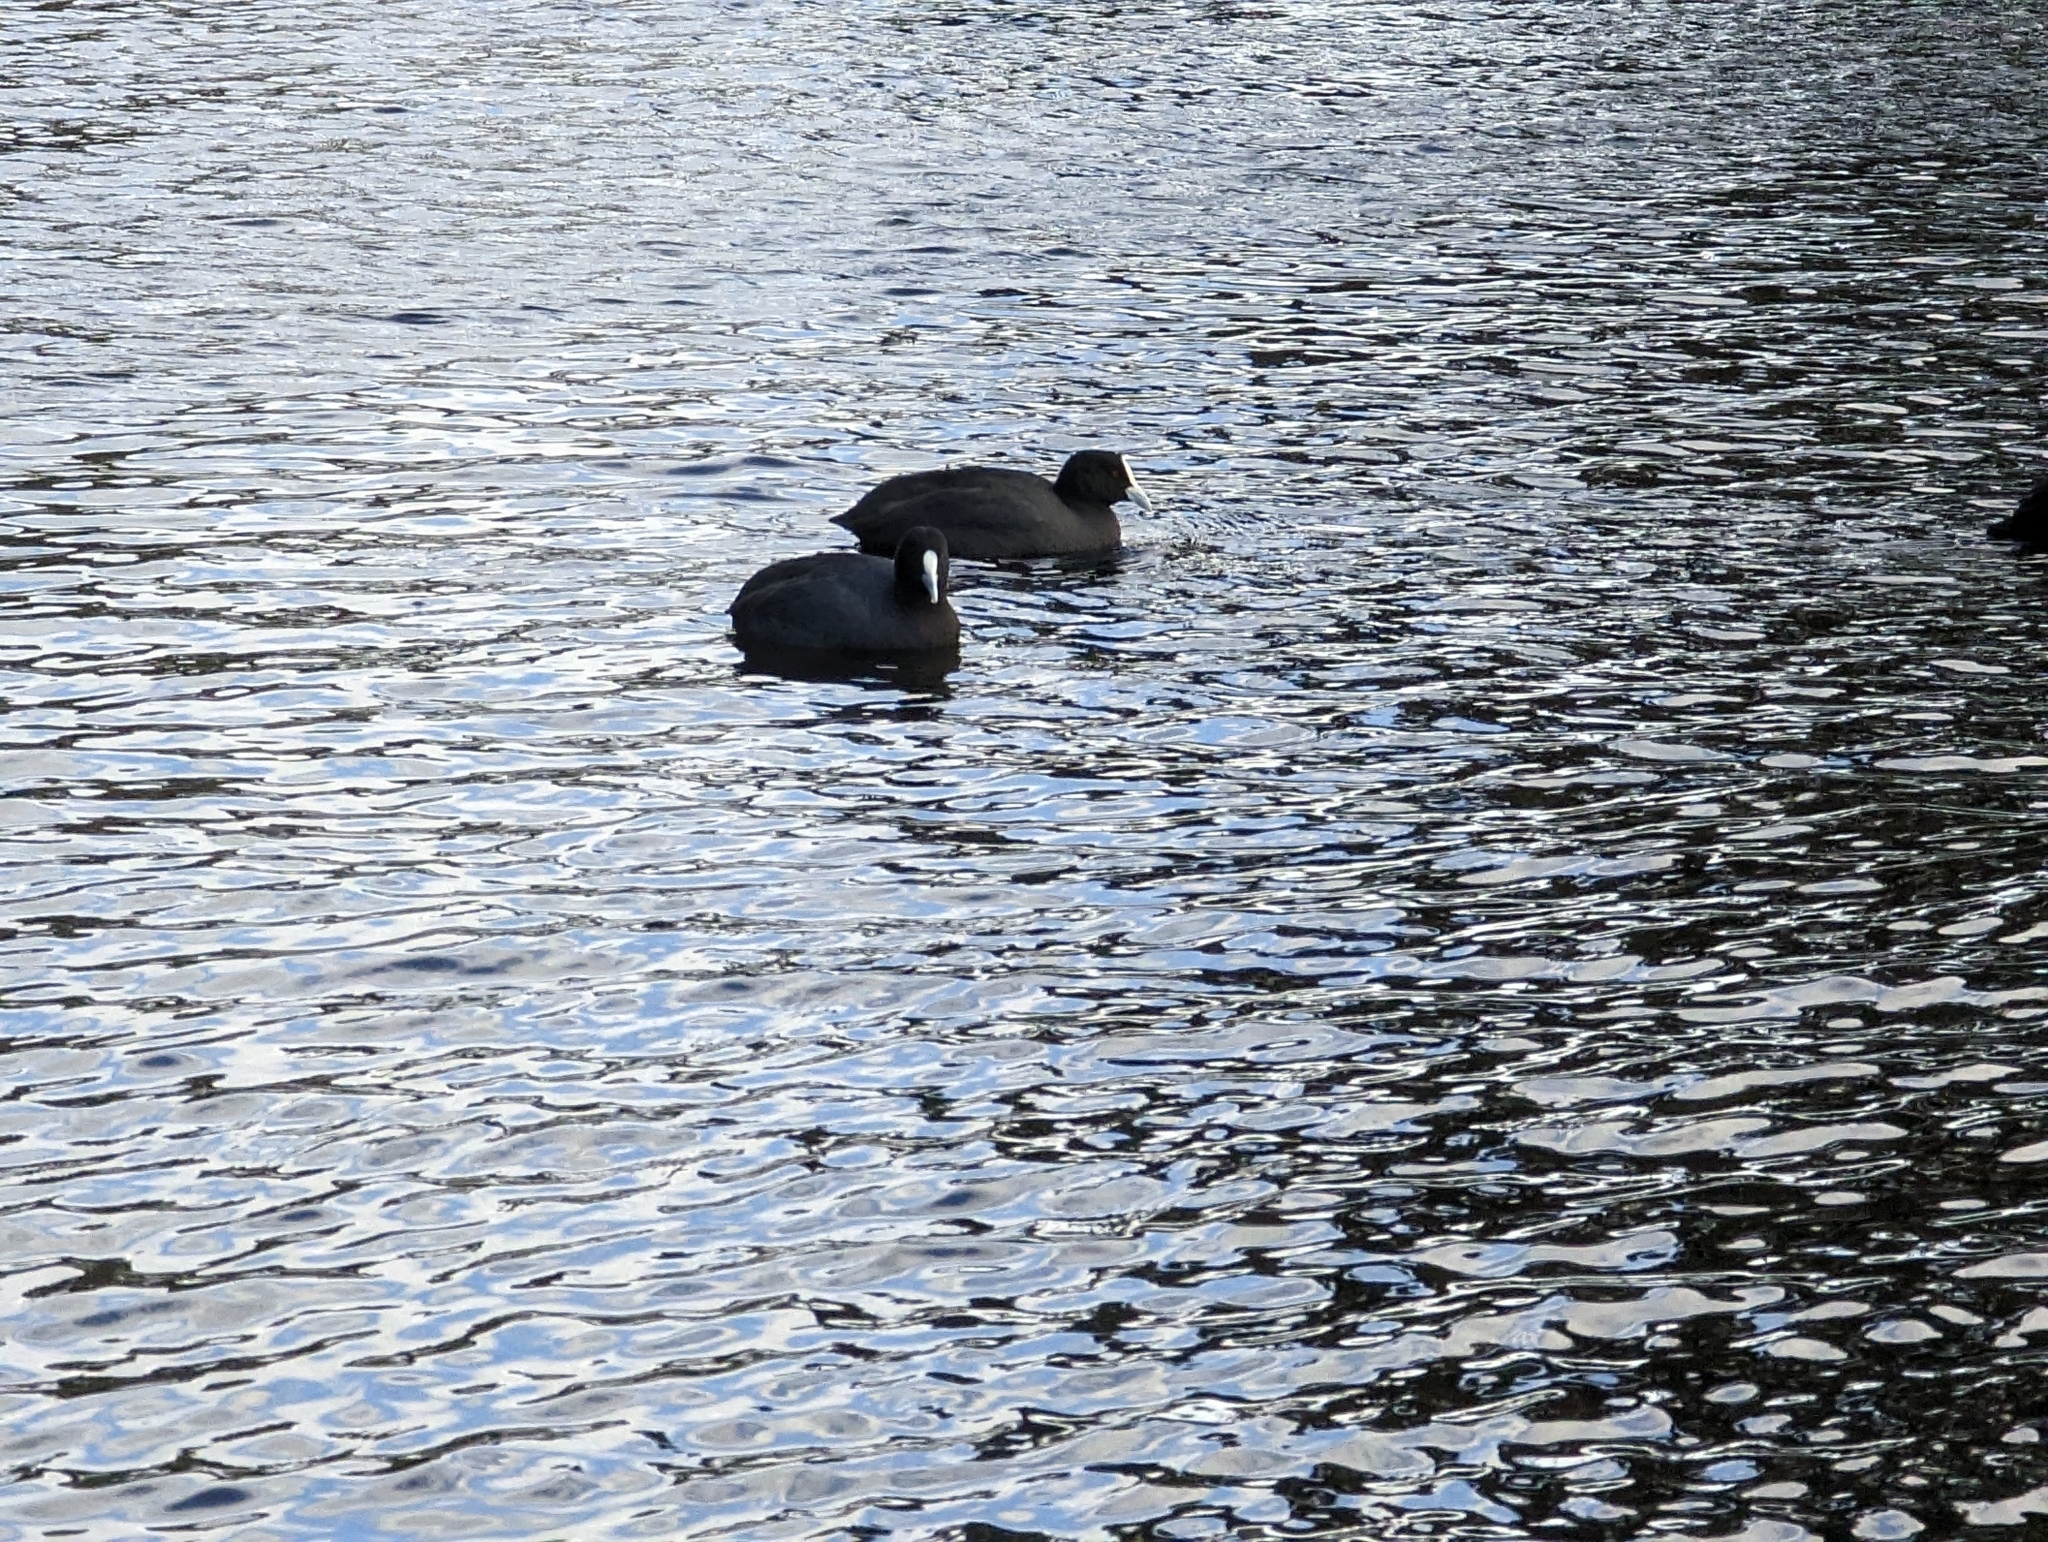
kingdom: Animalia
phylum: Chordata
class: Aves
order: Gruiformes
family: Rallidae
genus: Fulica
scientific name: Fulica atra
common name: Eurasian coot
